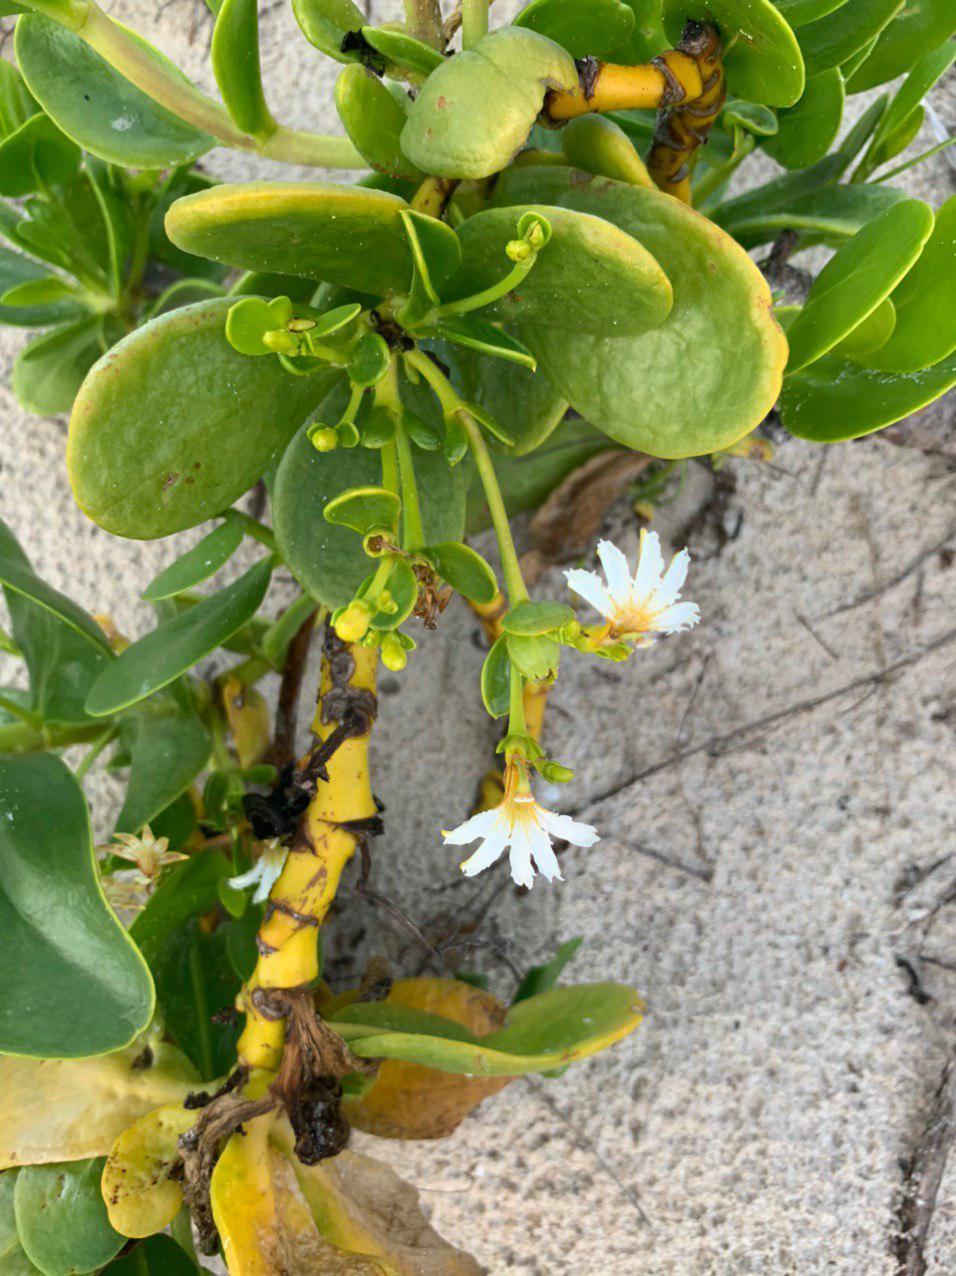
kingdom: Plantae
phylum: Tracheophyta
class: Magnoliopsida
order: Asterales
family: Goodeniaceae
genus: Scaevola
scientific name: Scaevola plumieri
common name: Gull feed
